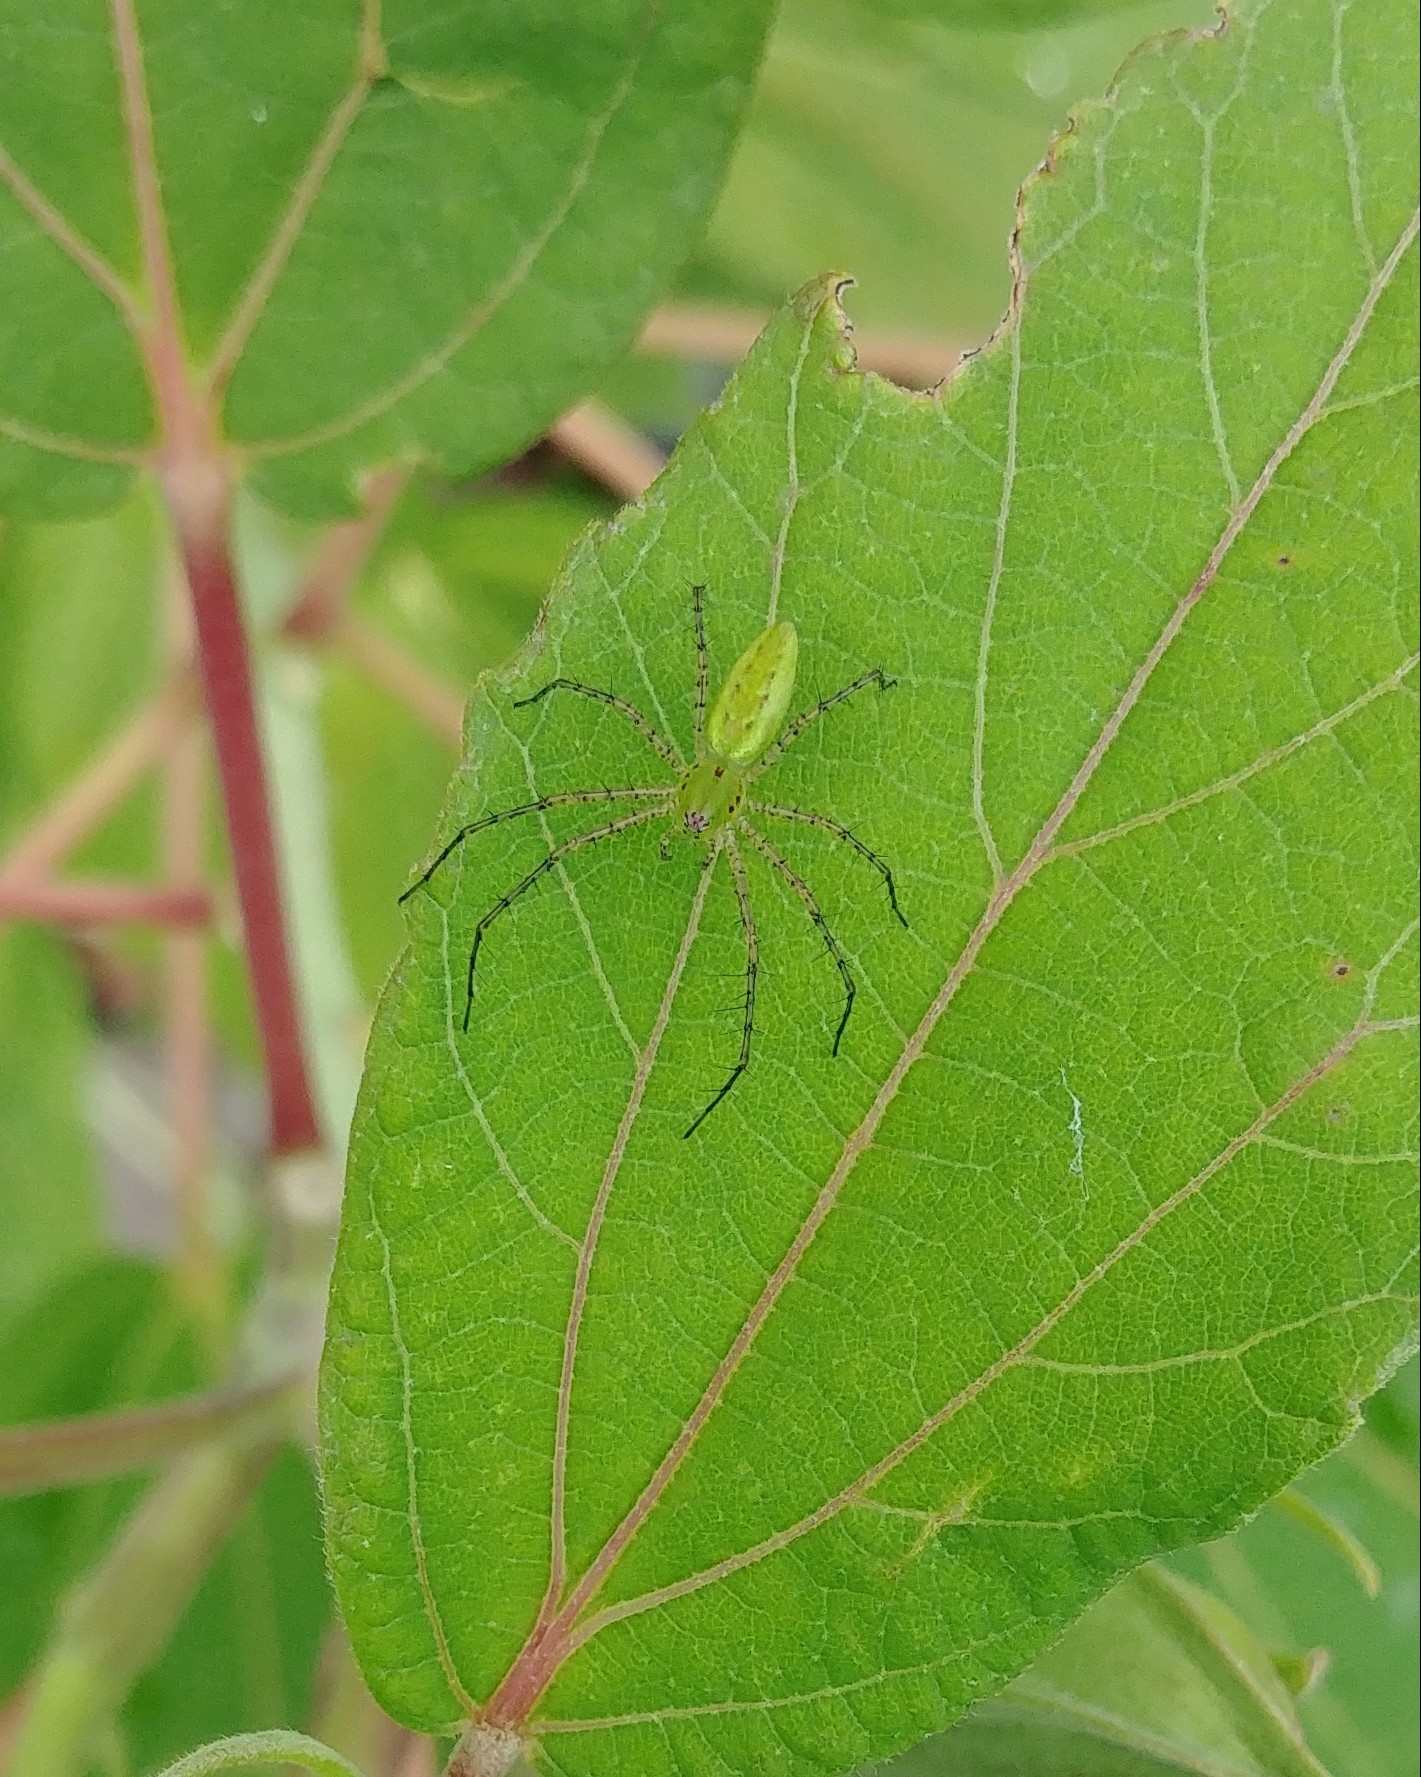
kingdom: Animalia
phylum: Arthropoda
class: Arachnida
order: Araneae
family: Oxyopidae
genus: Peucetia
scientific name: Peucetia viridans
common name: Lynx spiders
